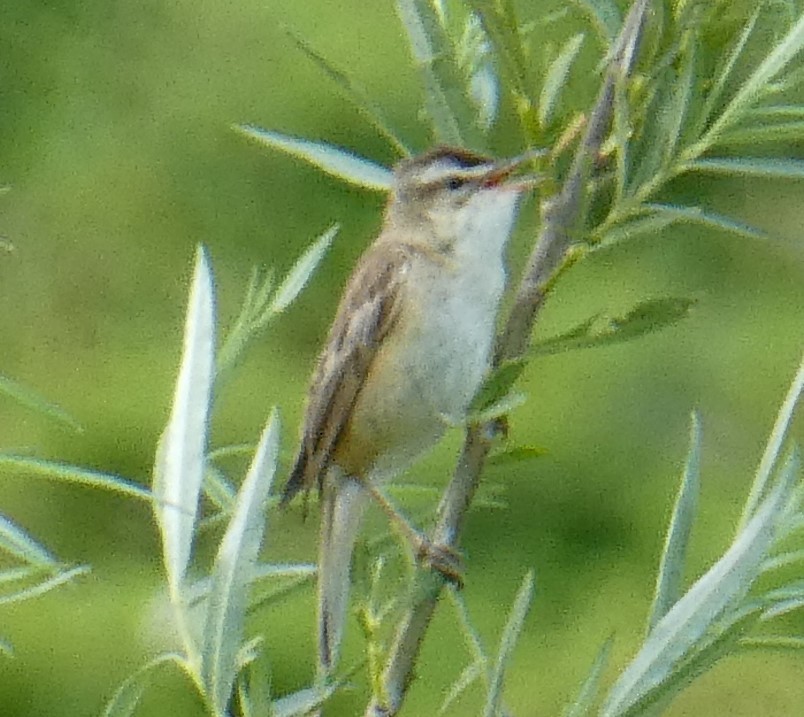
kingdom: Animalia
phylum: Chordata
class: Aves
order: Passeriformes
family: Acrocephalidae
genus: Acrocephalus
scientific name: Acrocephalus schoenobaenus
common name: Sedge warbler
